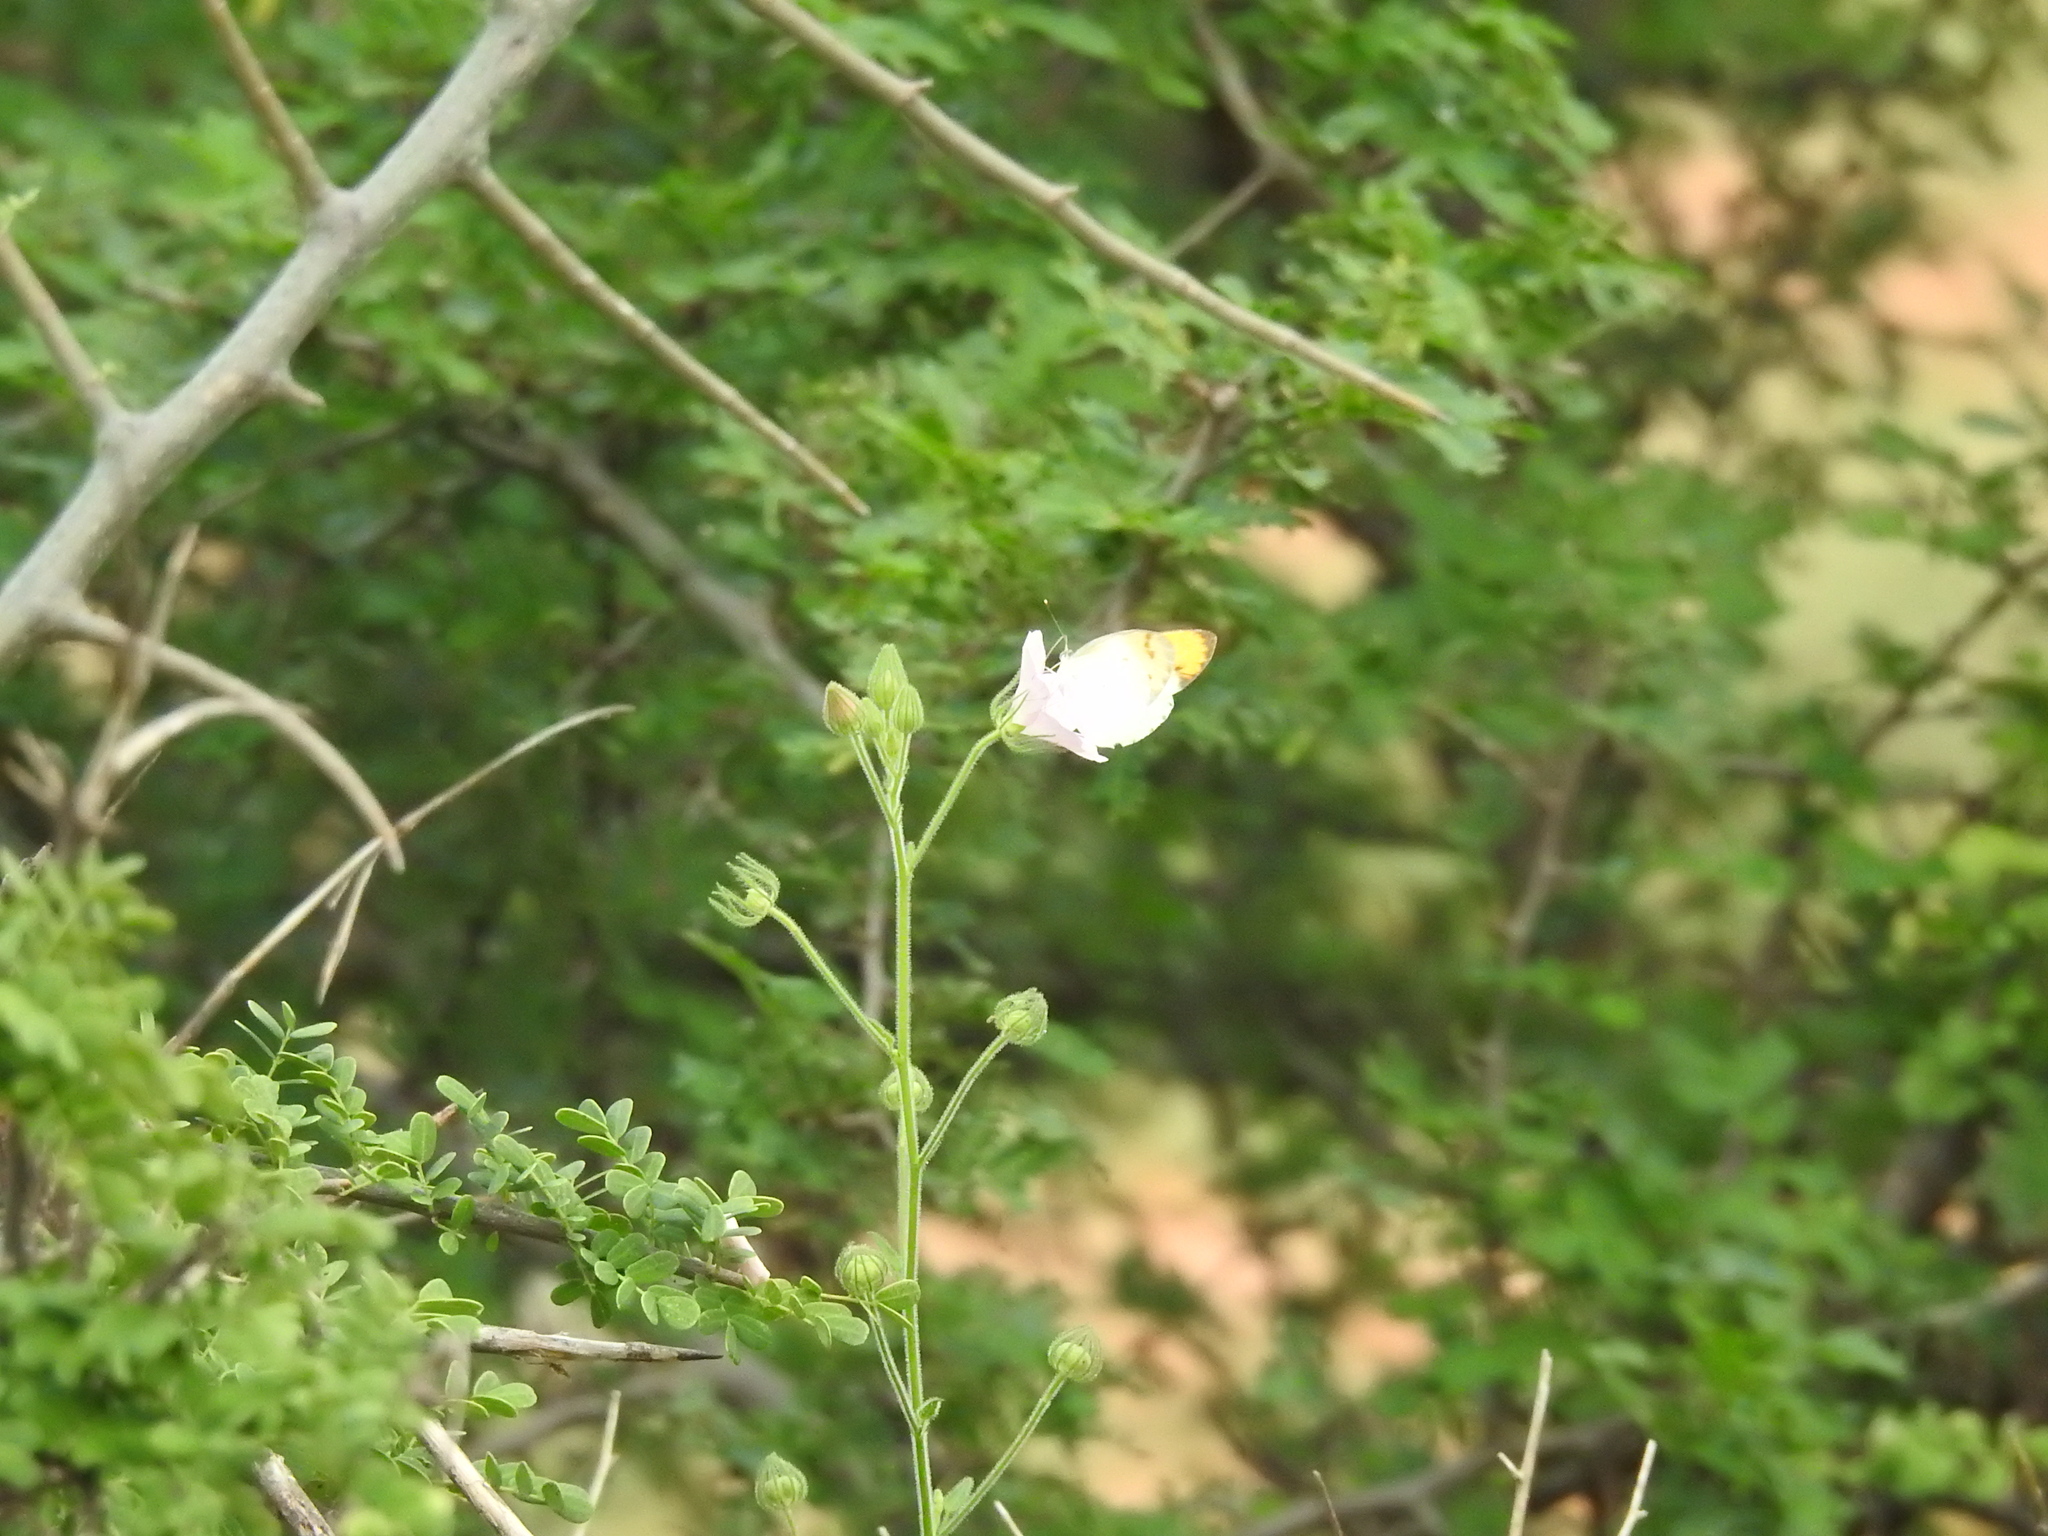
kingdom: Animalia
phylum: Arthropoda
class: Insecta
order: Lepidoptera
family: Pieridae
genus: Colotis
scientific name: Colotis aurora
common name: Plain orange-tip
